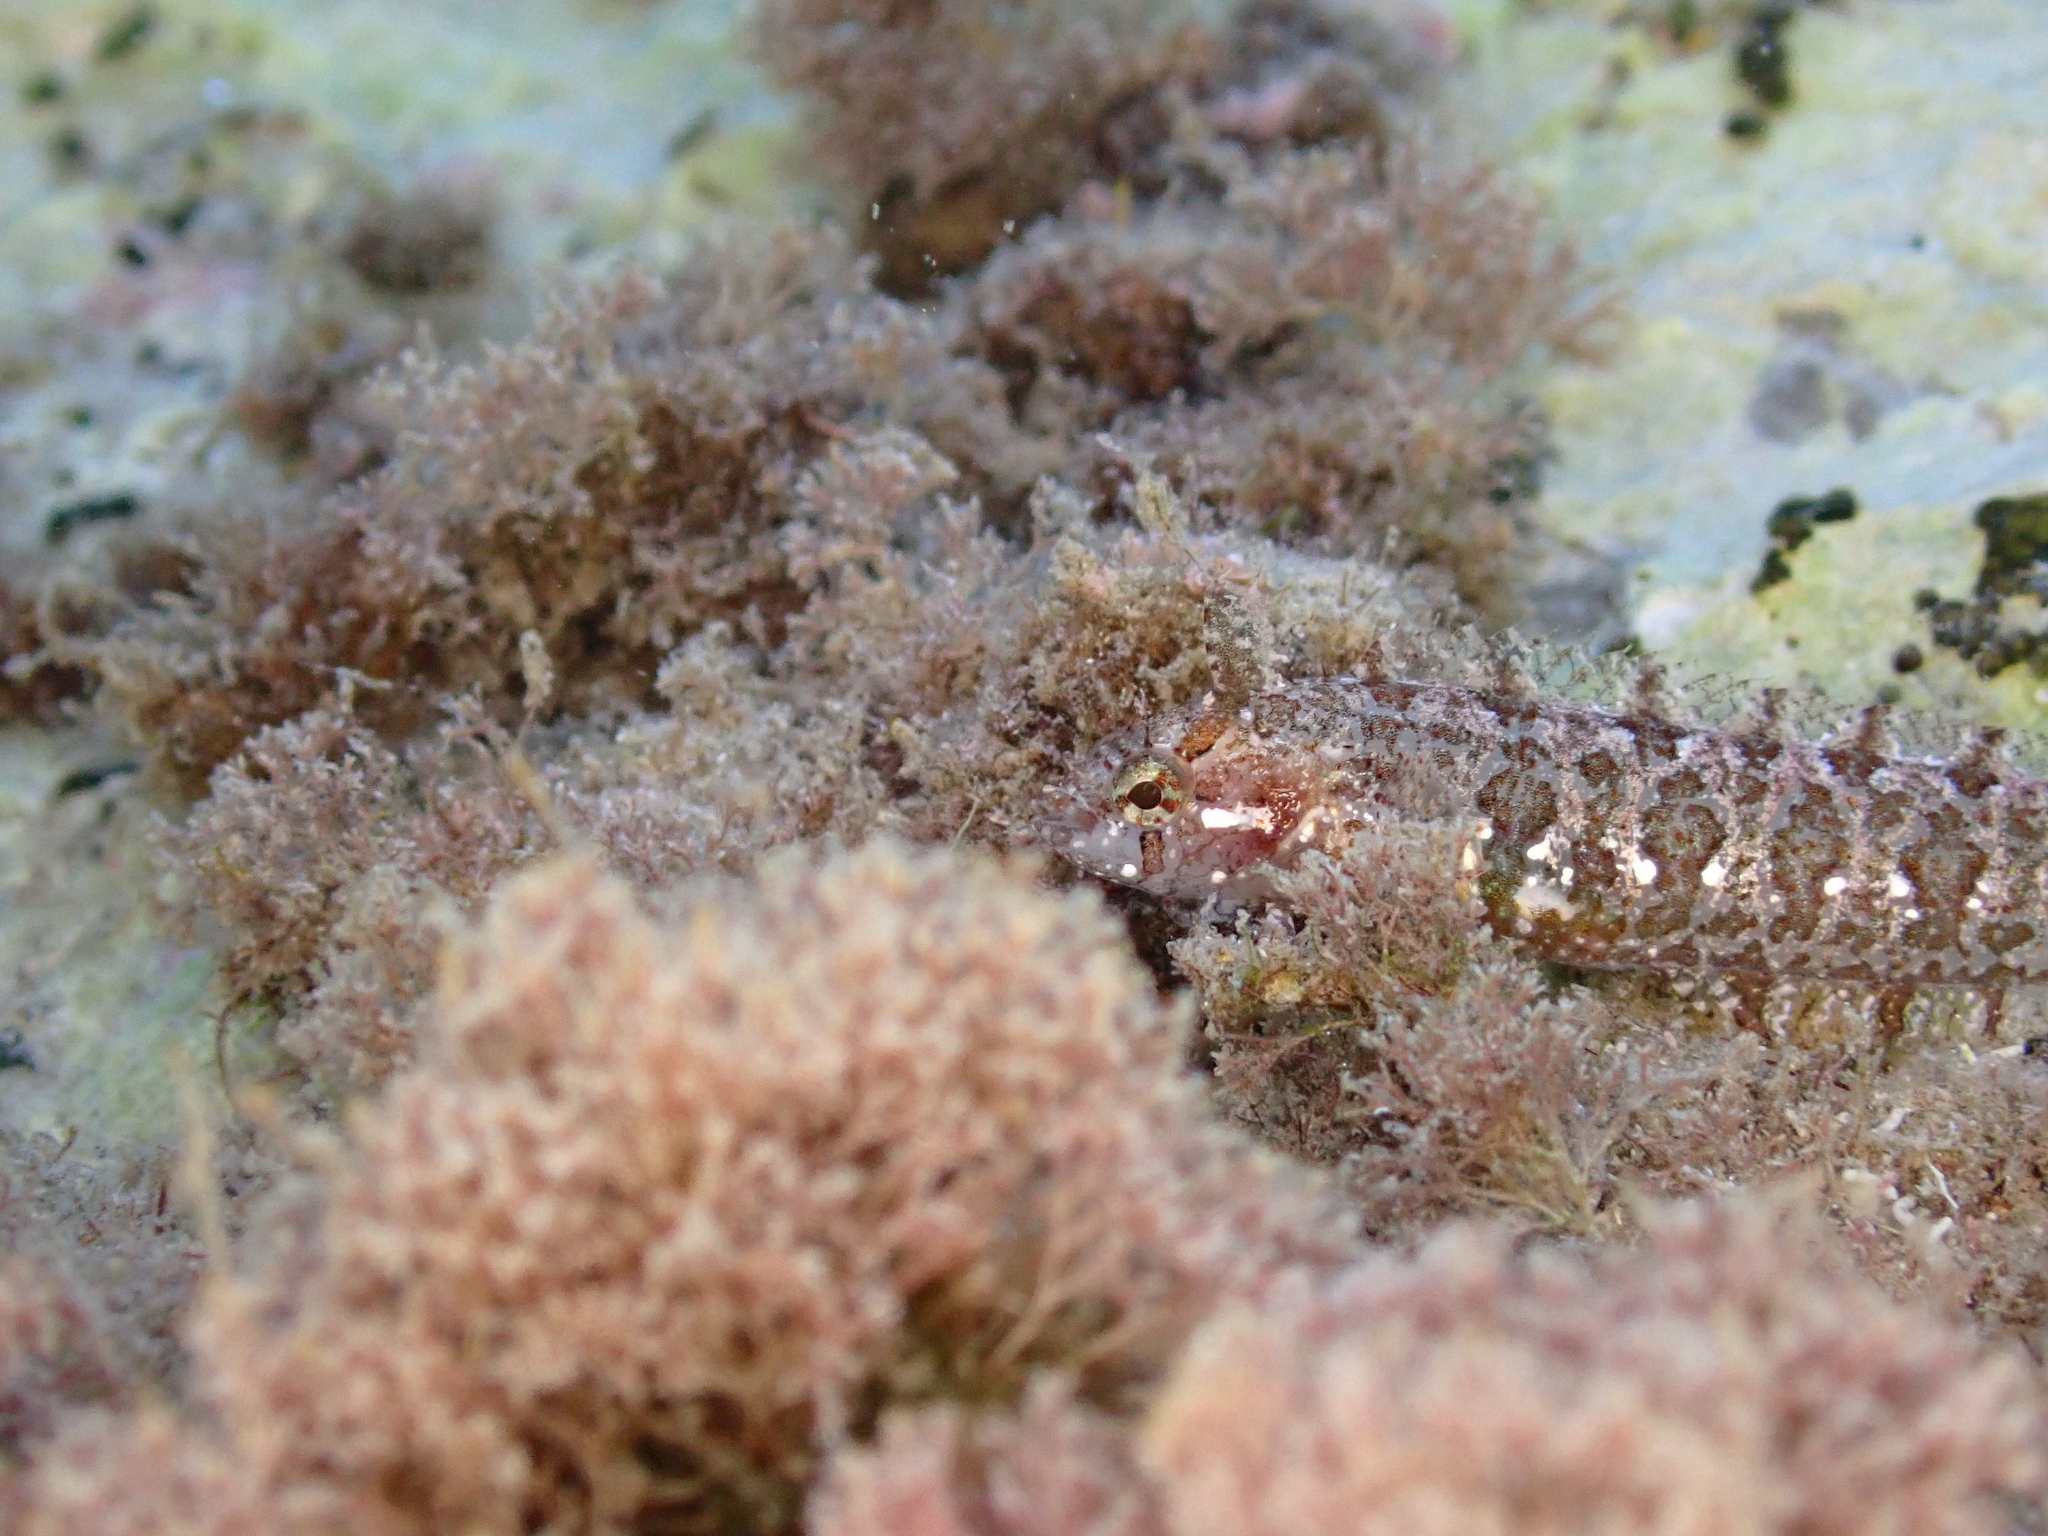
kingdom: Animalia
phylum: Chordata
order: Perciformes
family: Clinidae
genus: Clinitrachus
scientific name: Clinitrachus argentatus
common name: Cline
